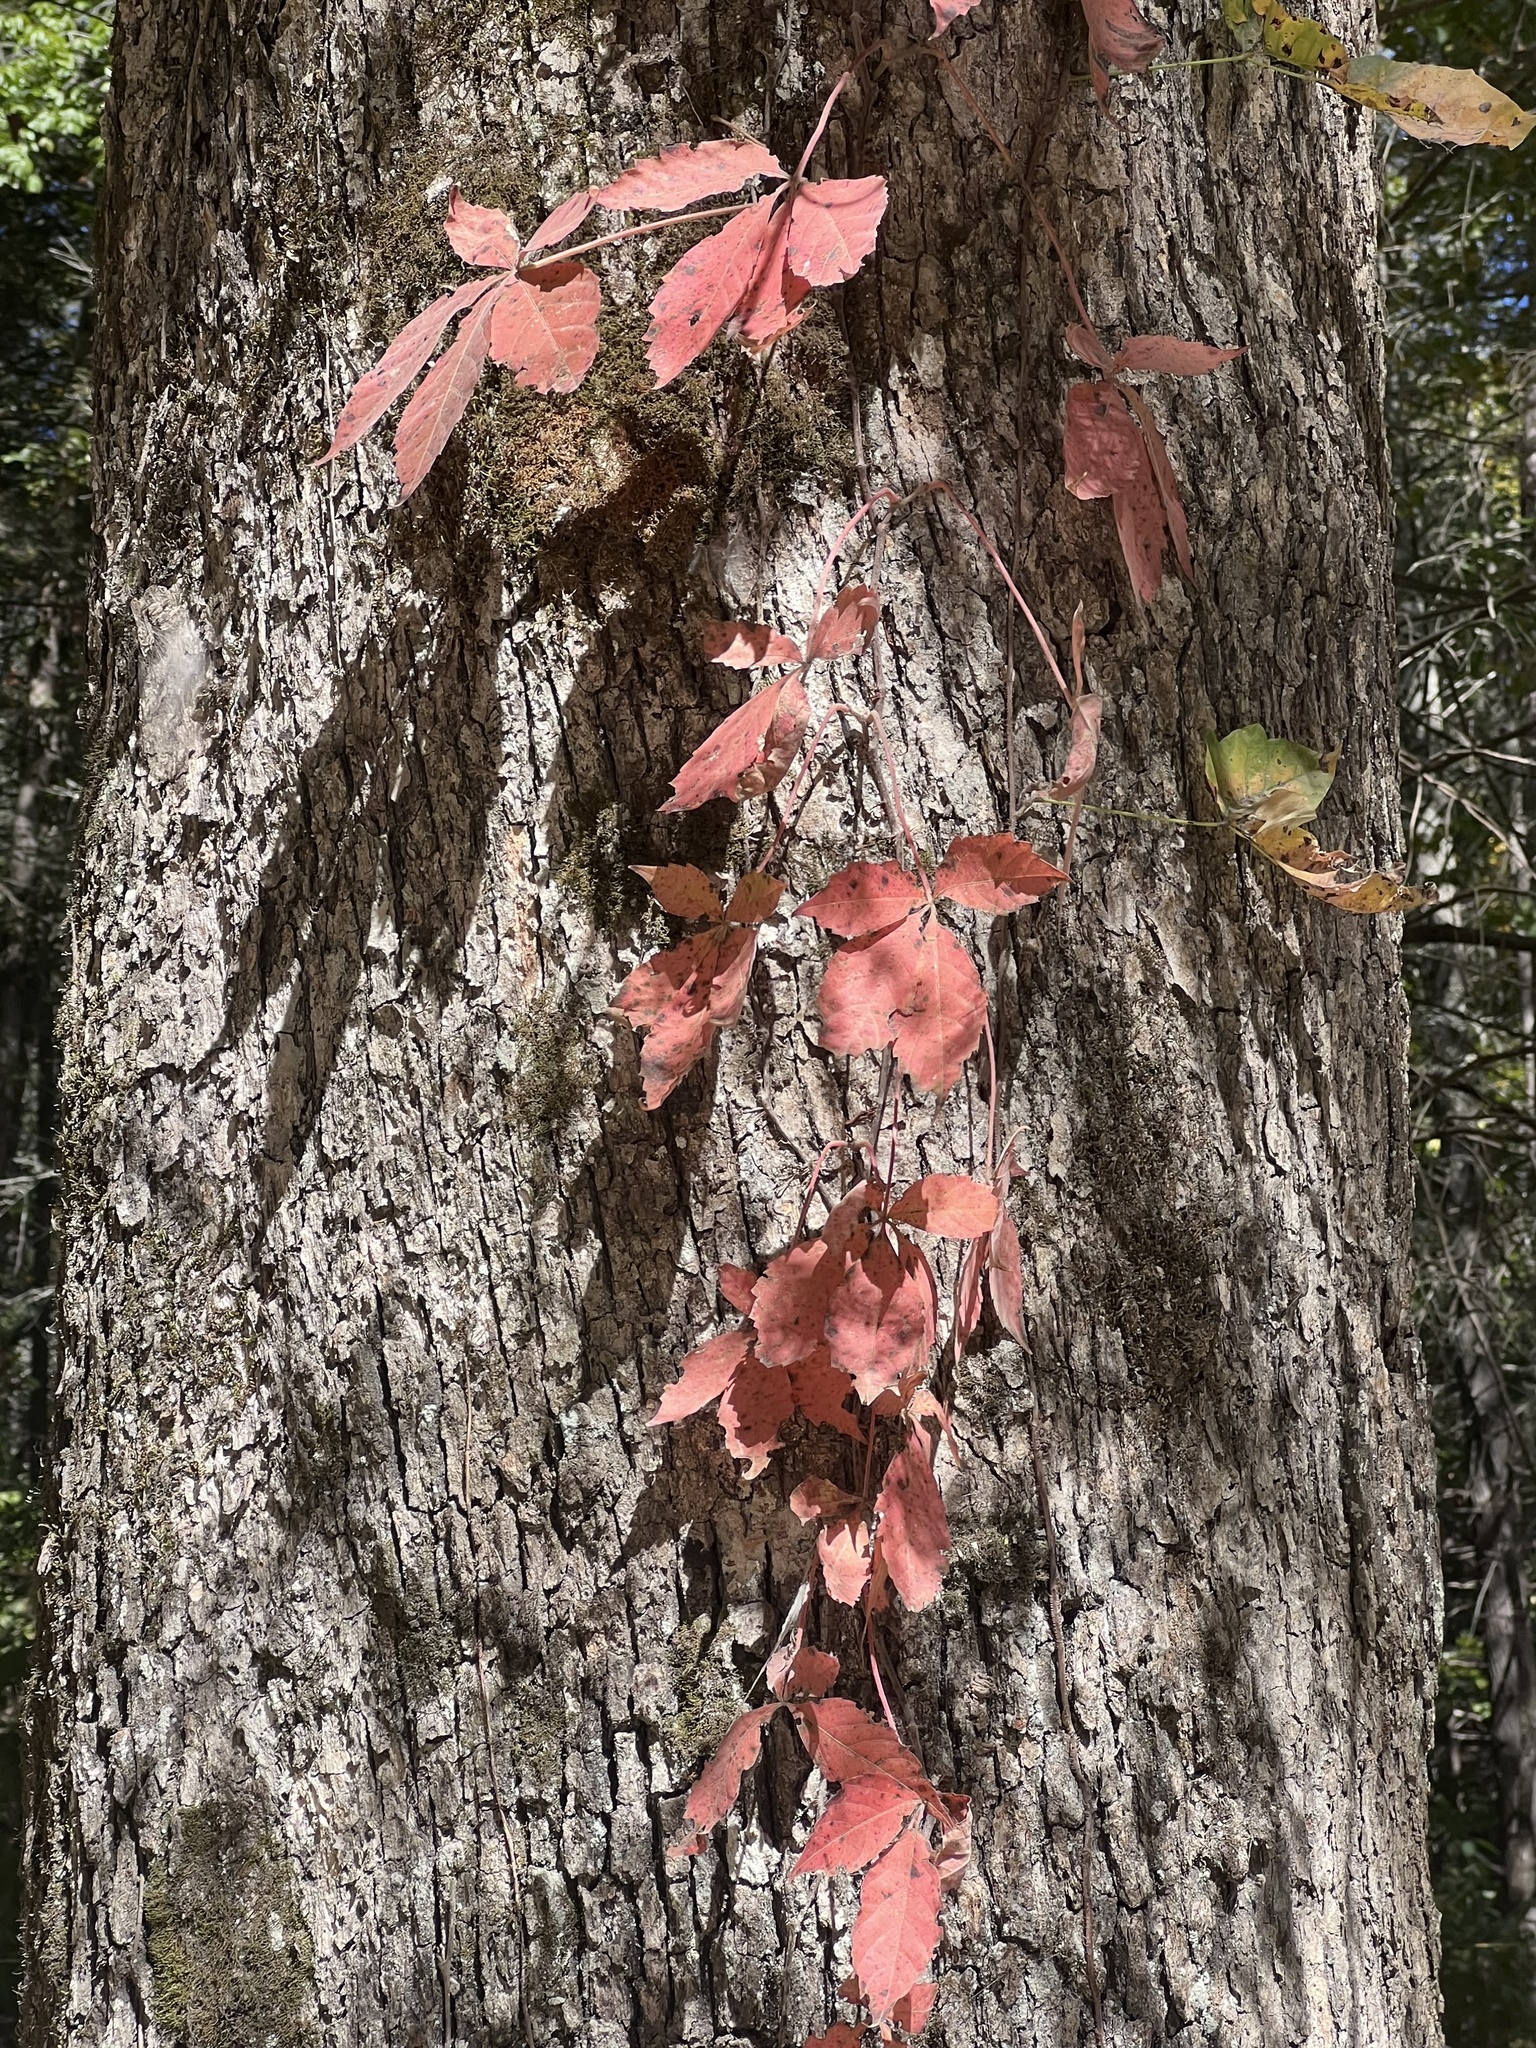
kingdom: Plantae
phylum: Tracheophyta
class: Magnoliopsida
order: Vitales
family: Vitaceae
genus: Parthenocissus
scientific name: Parthenocissus quinquefolia
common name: Virginia-creeper
